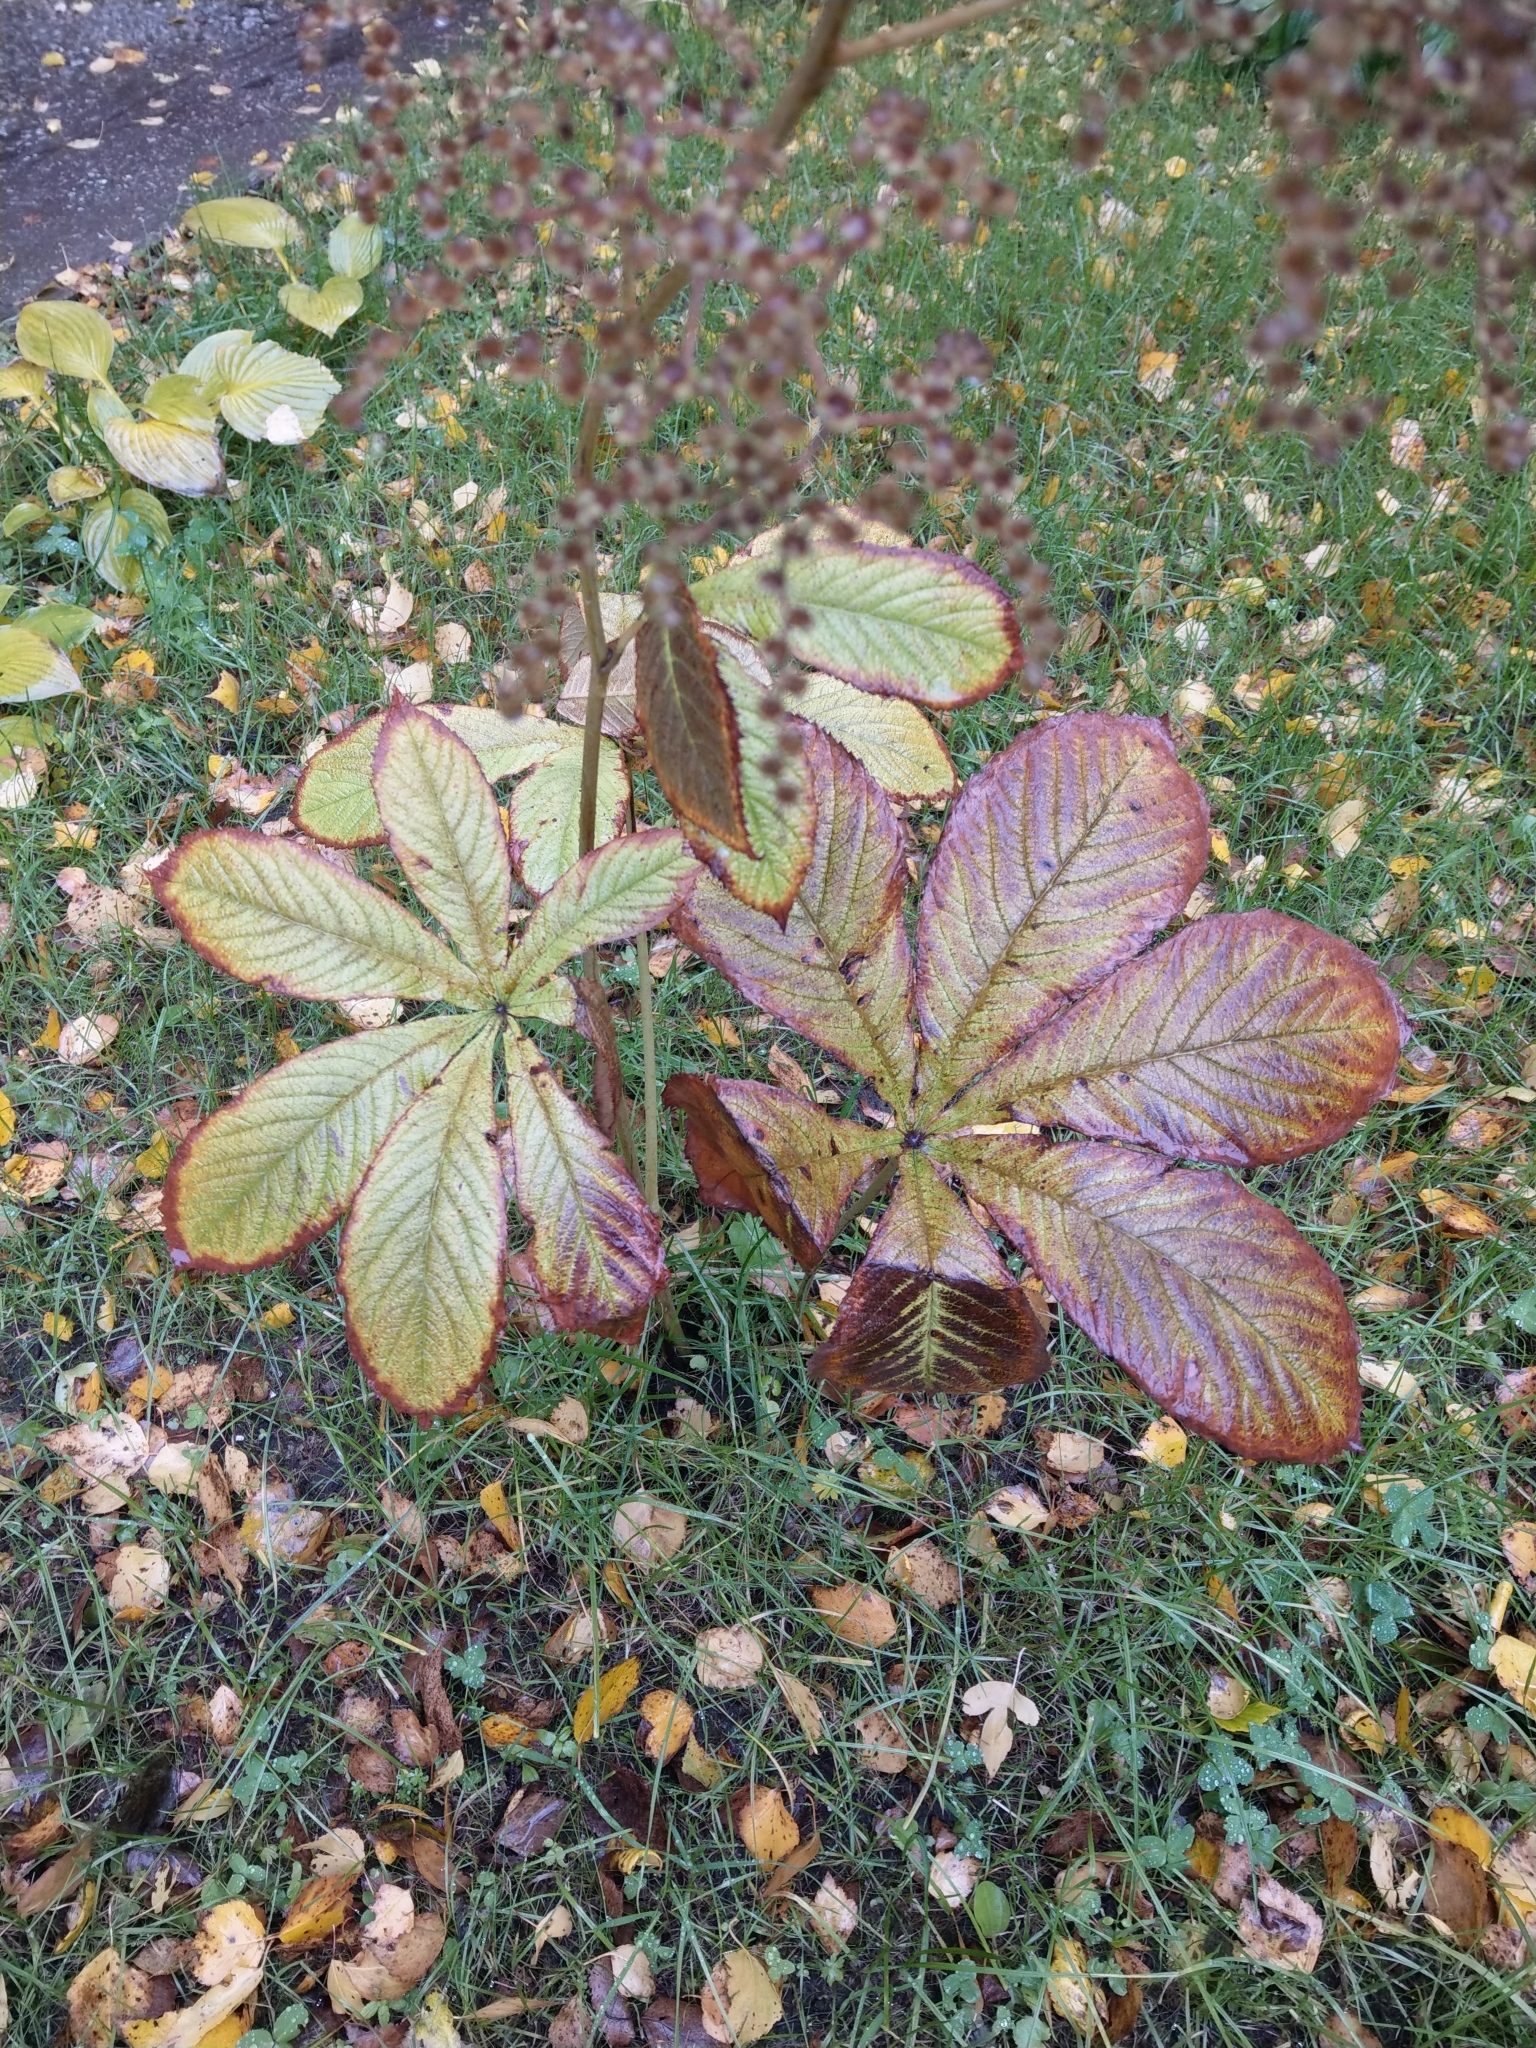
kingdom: Plantae
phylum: Tracheophyta
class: Magnoliopsida
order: Sapindales
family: Sapindaceae
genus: Aesculus
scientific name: Aesculus hippocastanum
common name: Horse-chestnut
